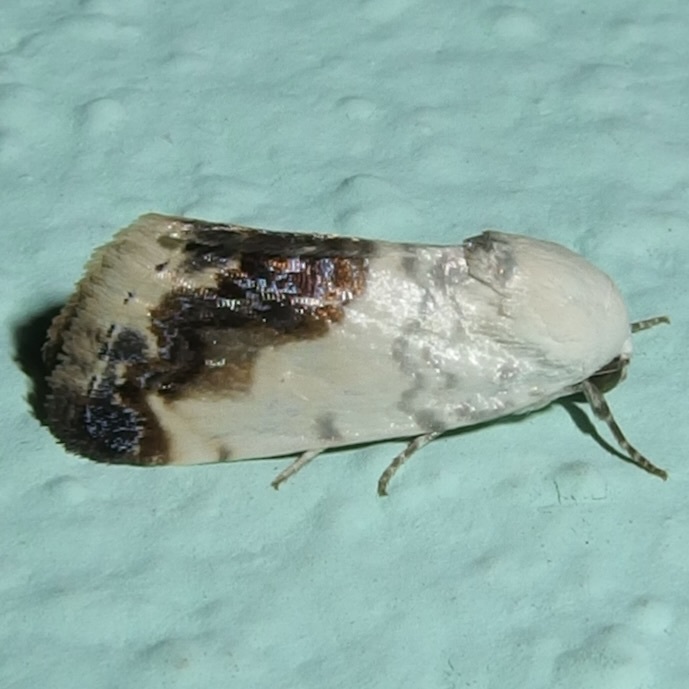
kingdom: Animalia
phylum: Arthropoda
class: Insecta
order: Lepidoptera
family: Noctuidae
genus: Acontia
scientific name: Acontia behrii
